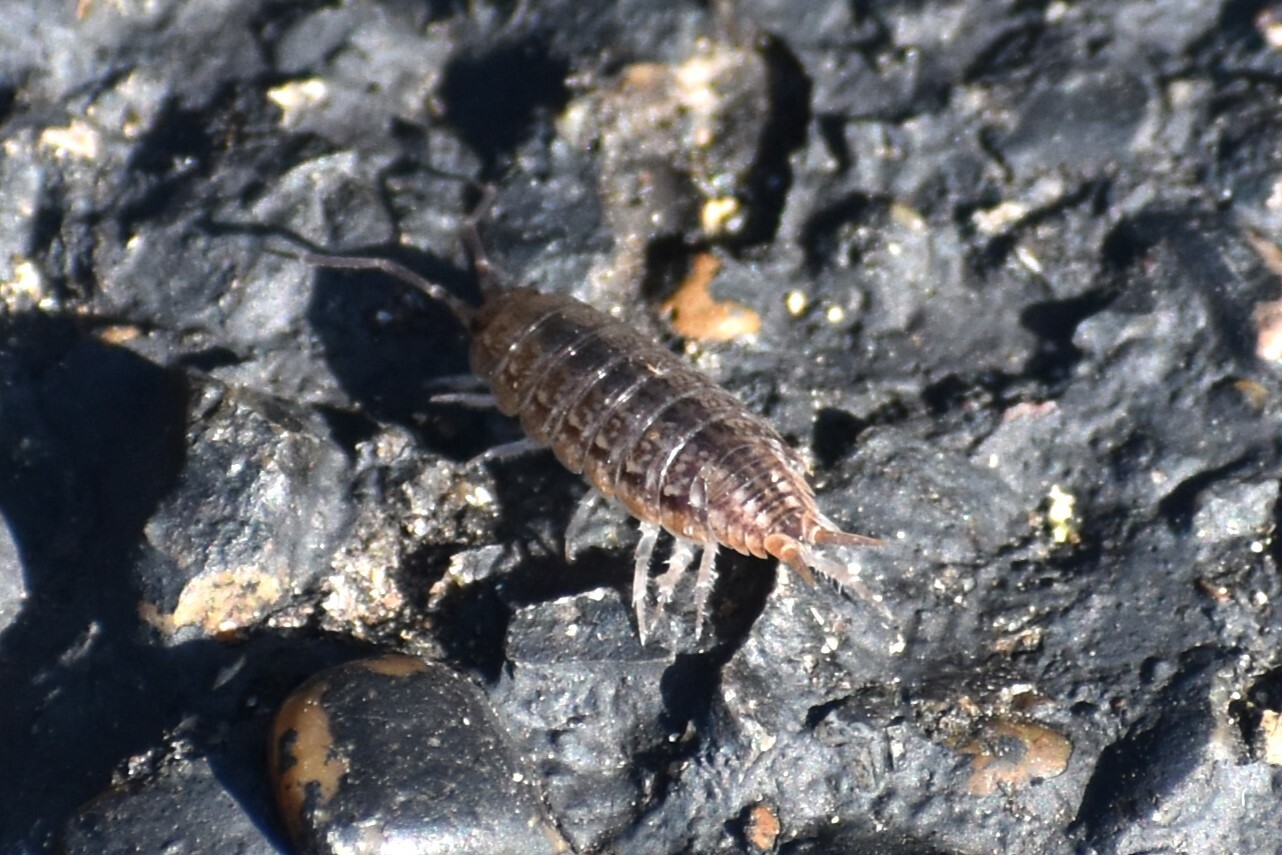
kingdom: Animalia
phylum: Arthropoda
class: Malacostraca
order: Isopoda
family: Porcellionidae
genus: Porcellionides
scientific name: Porcellionides virgatus
